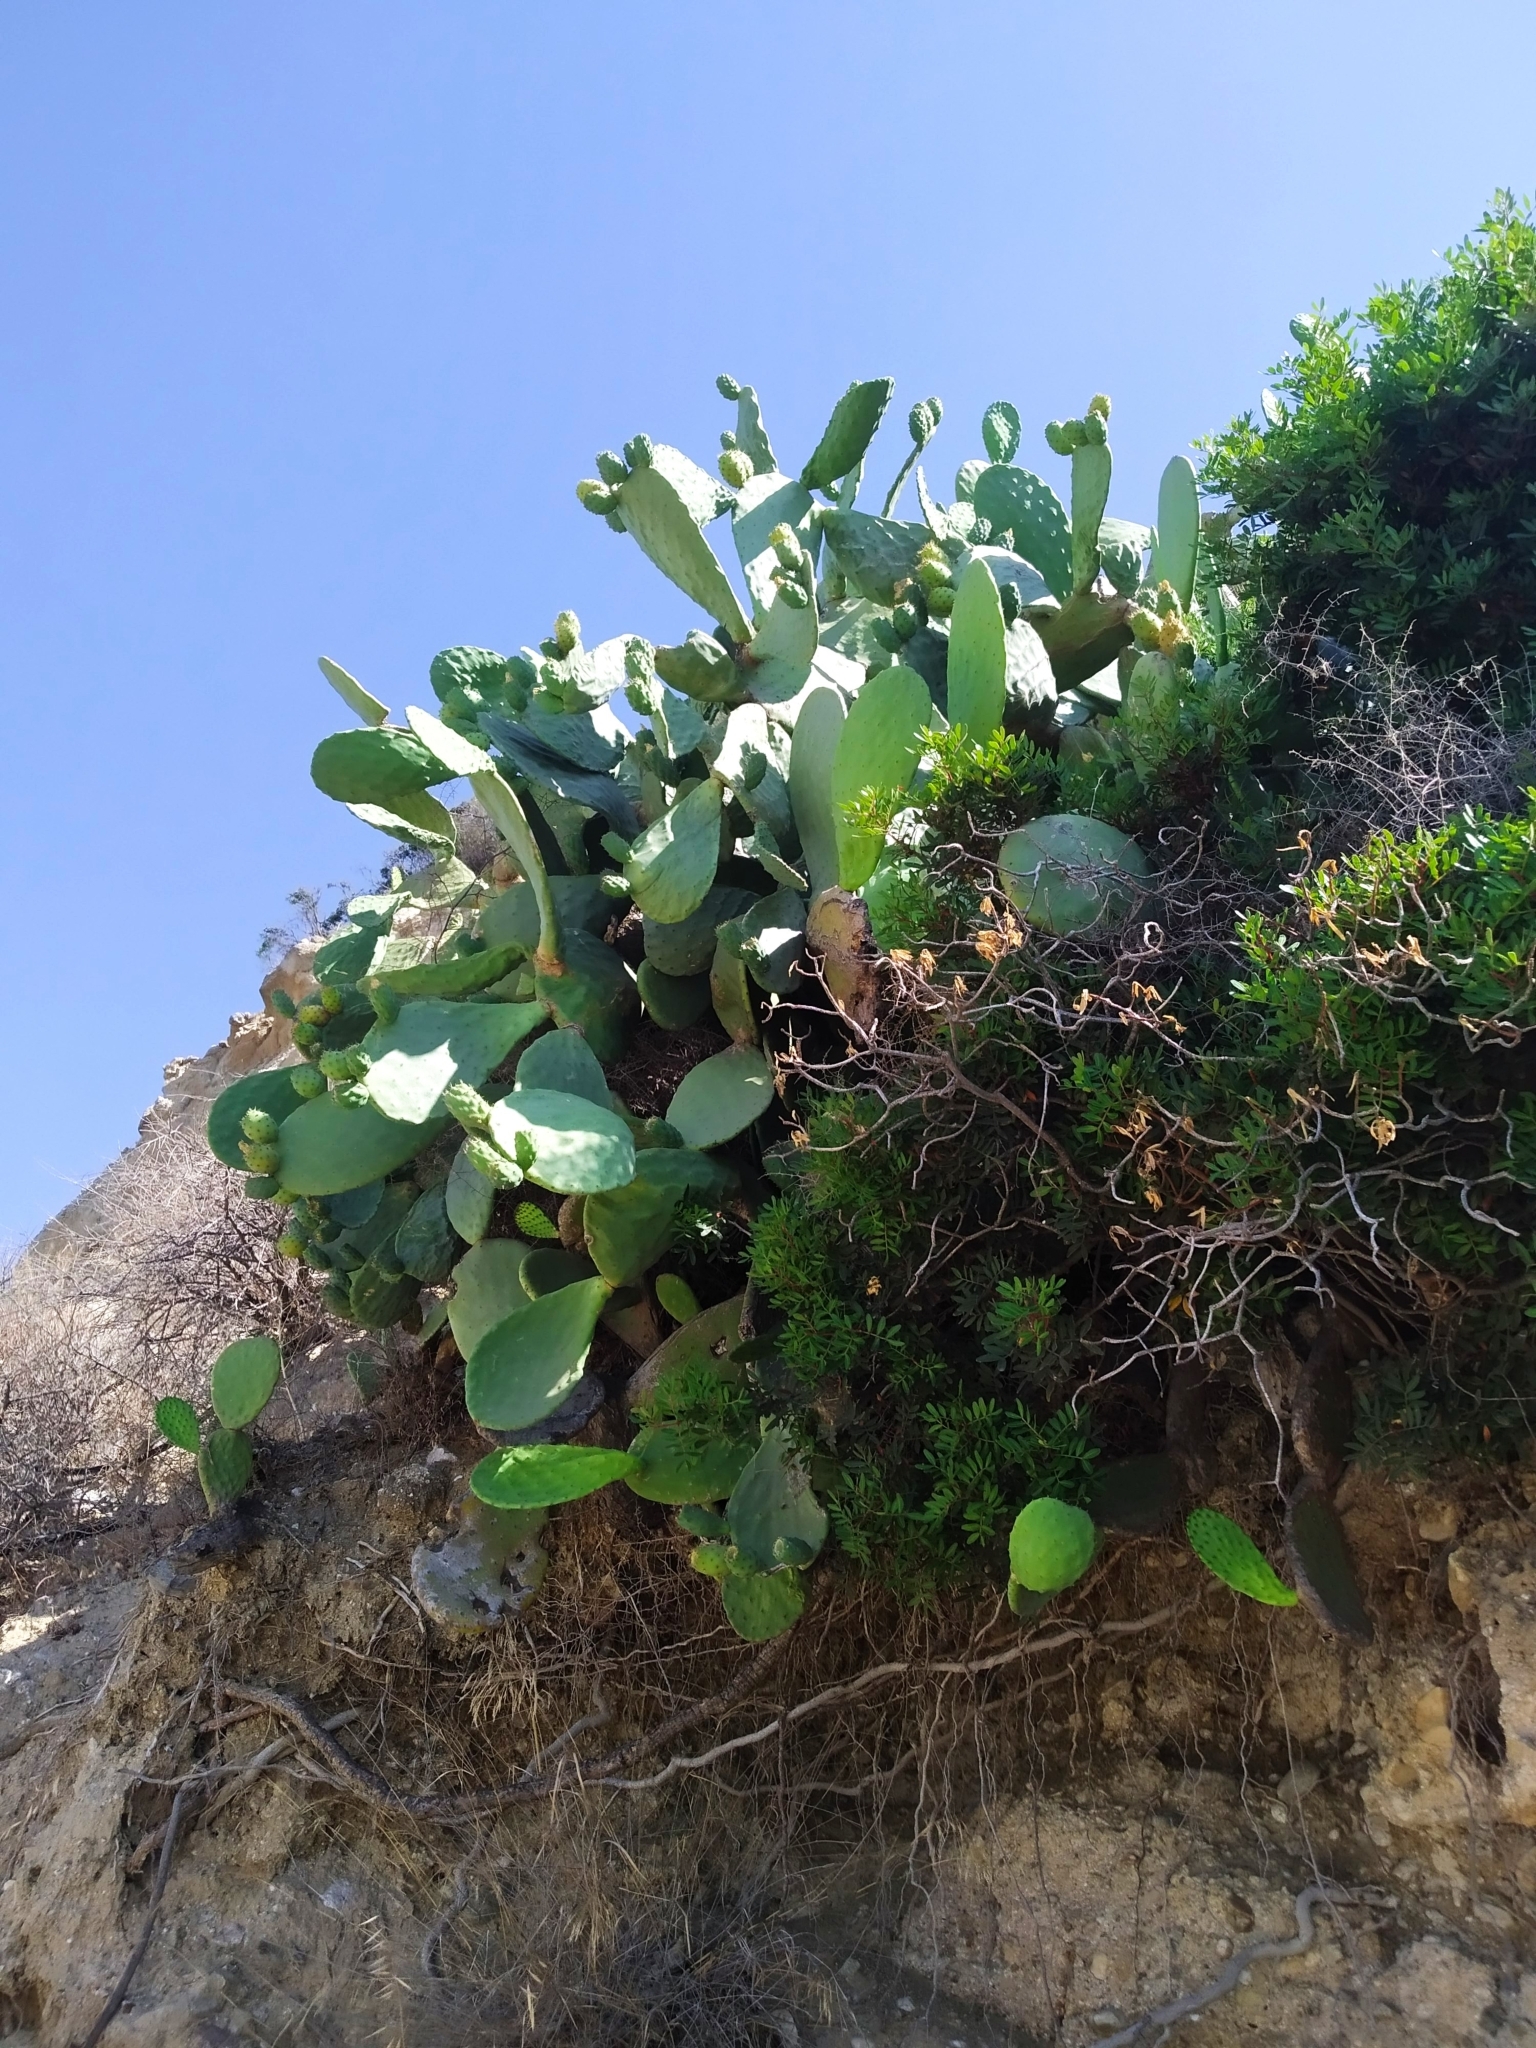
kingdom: Plantae
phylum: Tracheophyta
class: Magnoliopsida
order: Caryophyllales
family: Cactaceae
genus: Opuntia
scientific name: Opuntia ficus-indica
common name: Barbary fig
